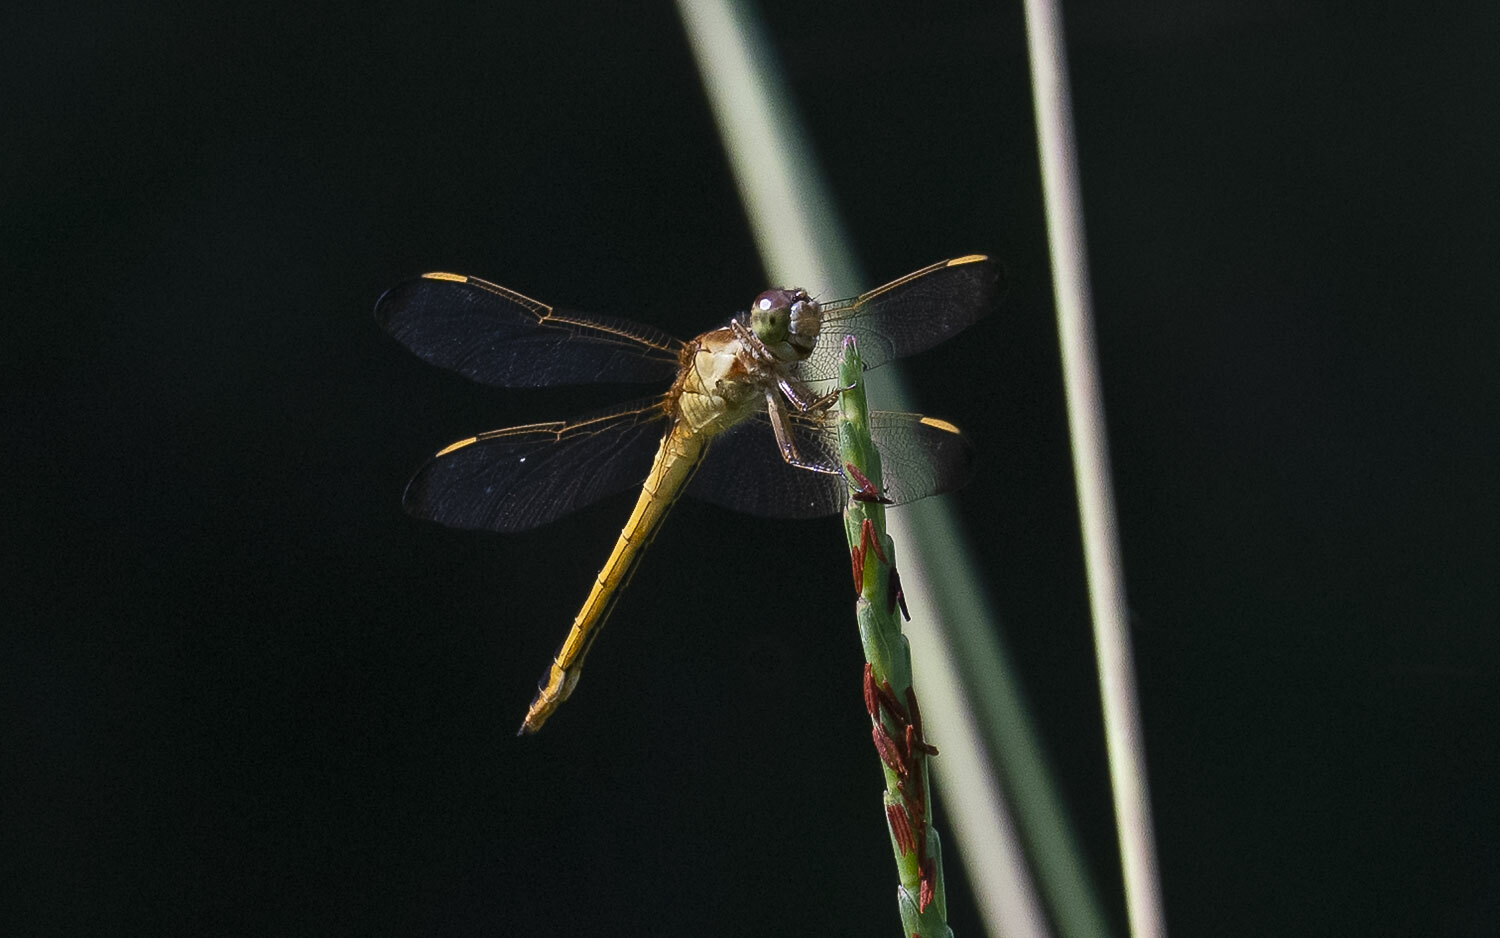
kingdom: Animalia
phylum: Arthropoda
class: Insecta
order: Odonata
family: Libellulidae
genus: Libellula
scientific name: Libellula needhami
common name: Needham's skimmer
